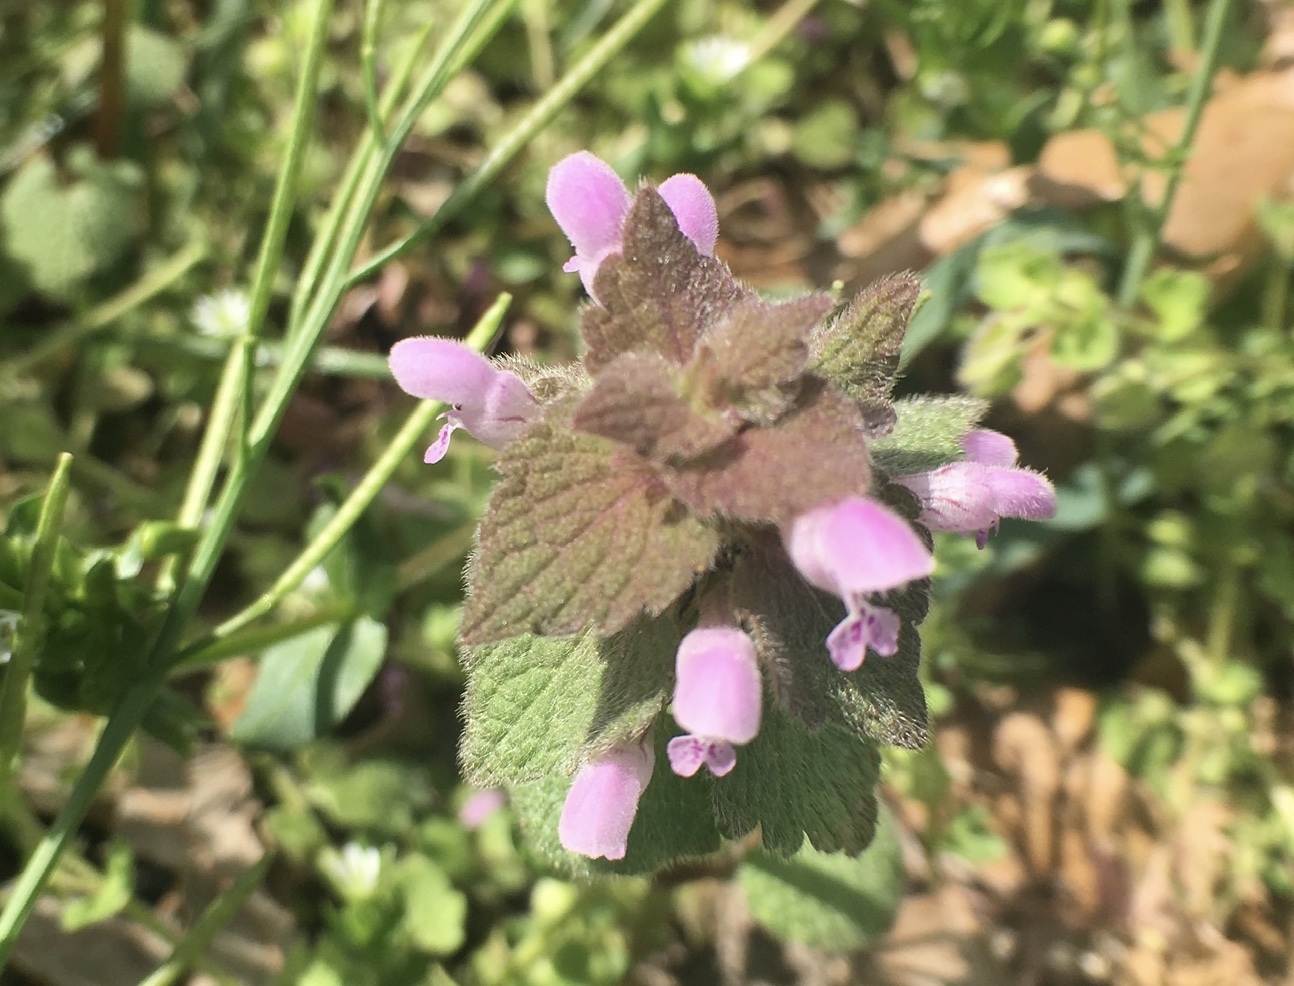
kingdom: Plantae
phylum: Tracheophyta
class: Magnoliopsida
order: Lamiales
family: Lamiaceae
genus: Lamium
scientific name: Lamium purpureum
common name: Red dead-nettle
